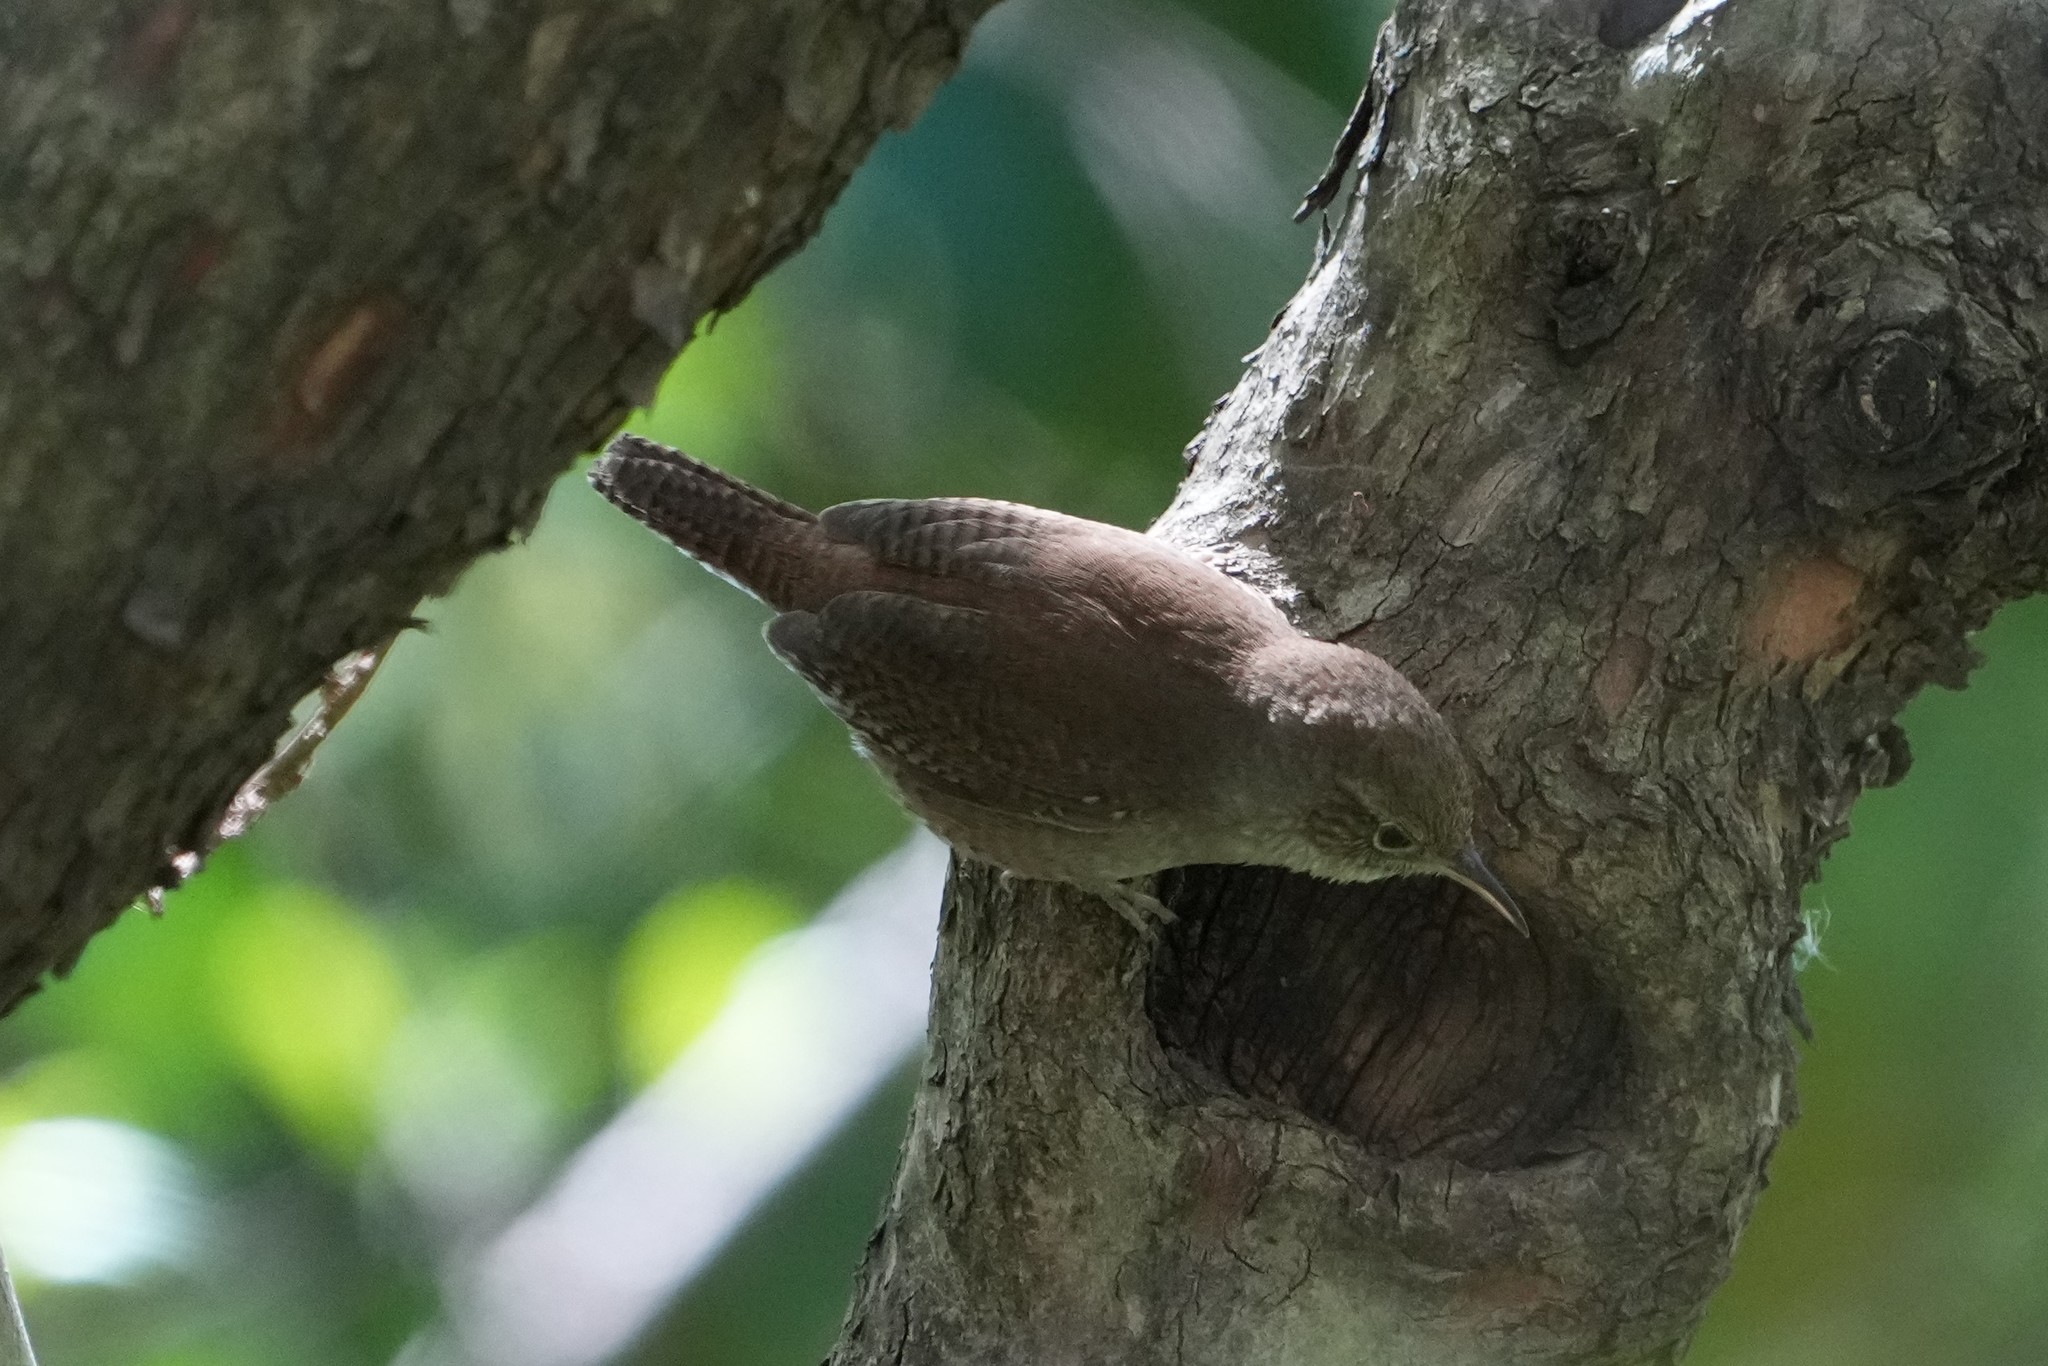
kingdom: Animalia
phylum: Chordata
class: Aves
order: Passeriformes
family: Troglodytidae
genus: Troglodytes
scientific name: Troglodytes aedon
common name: House wren
